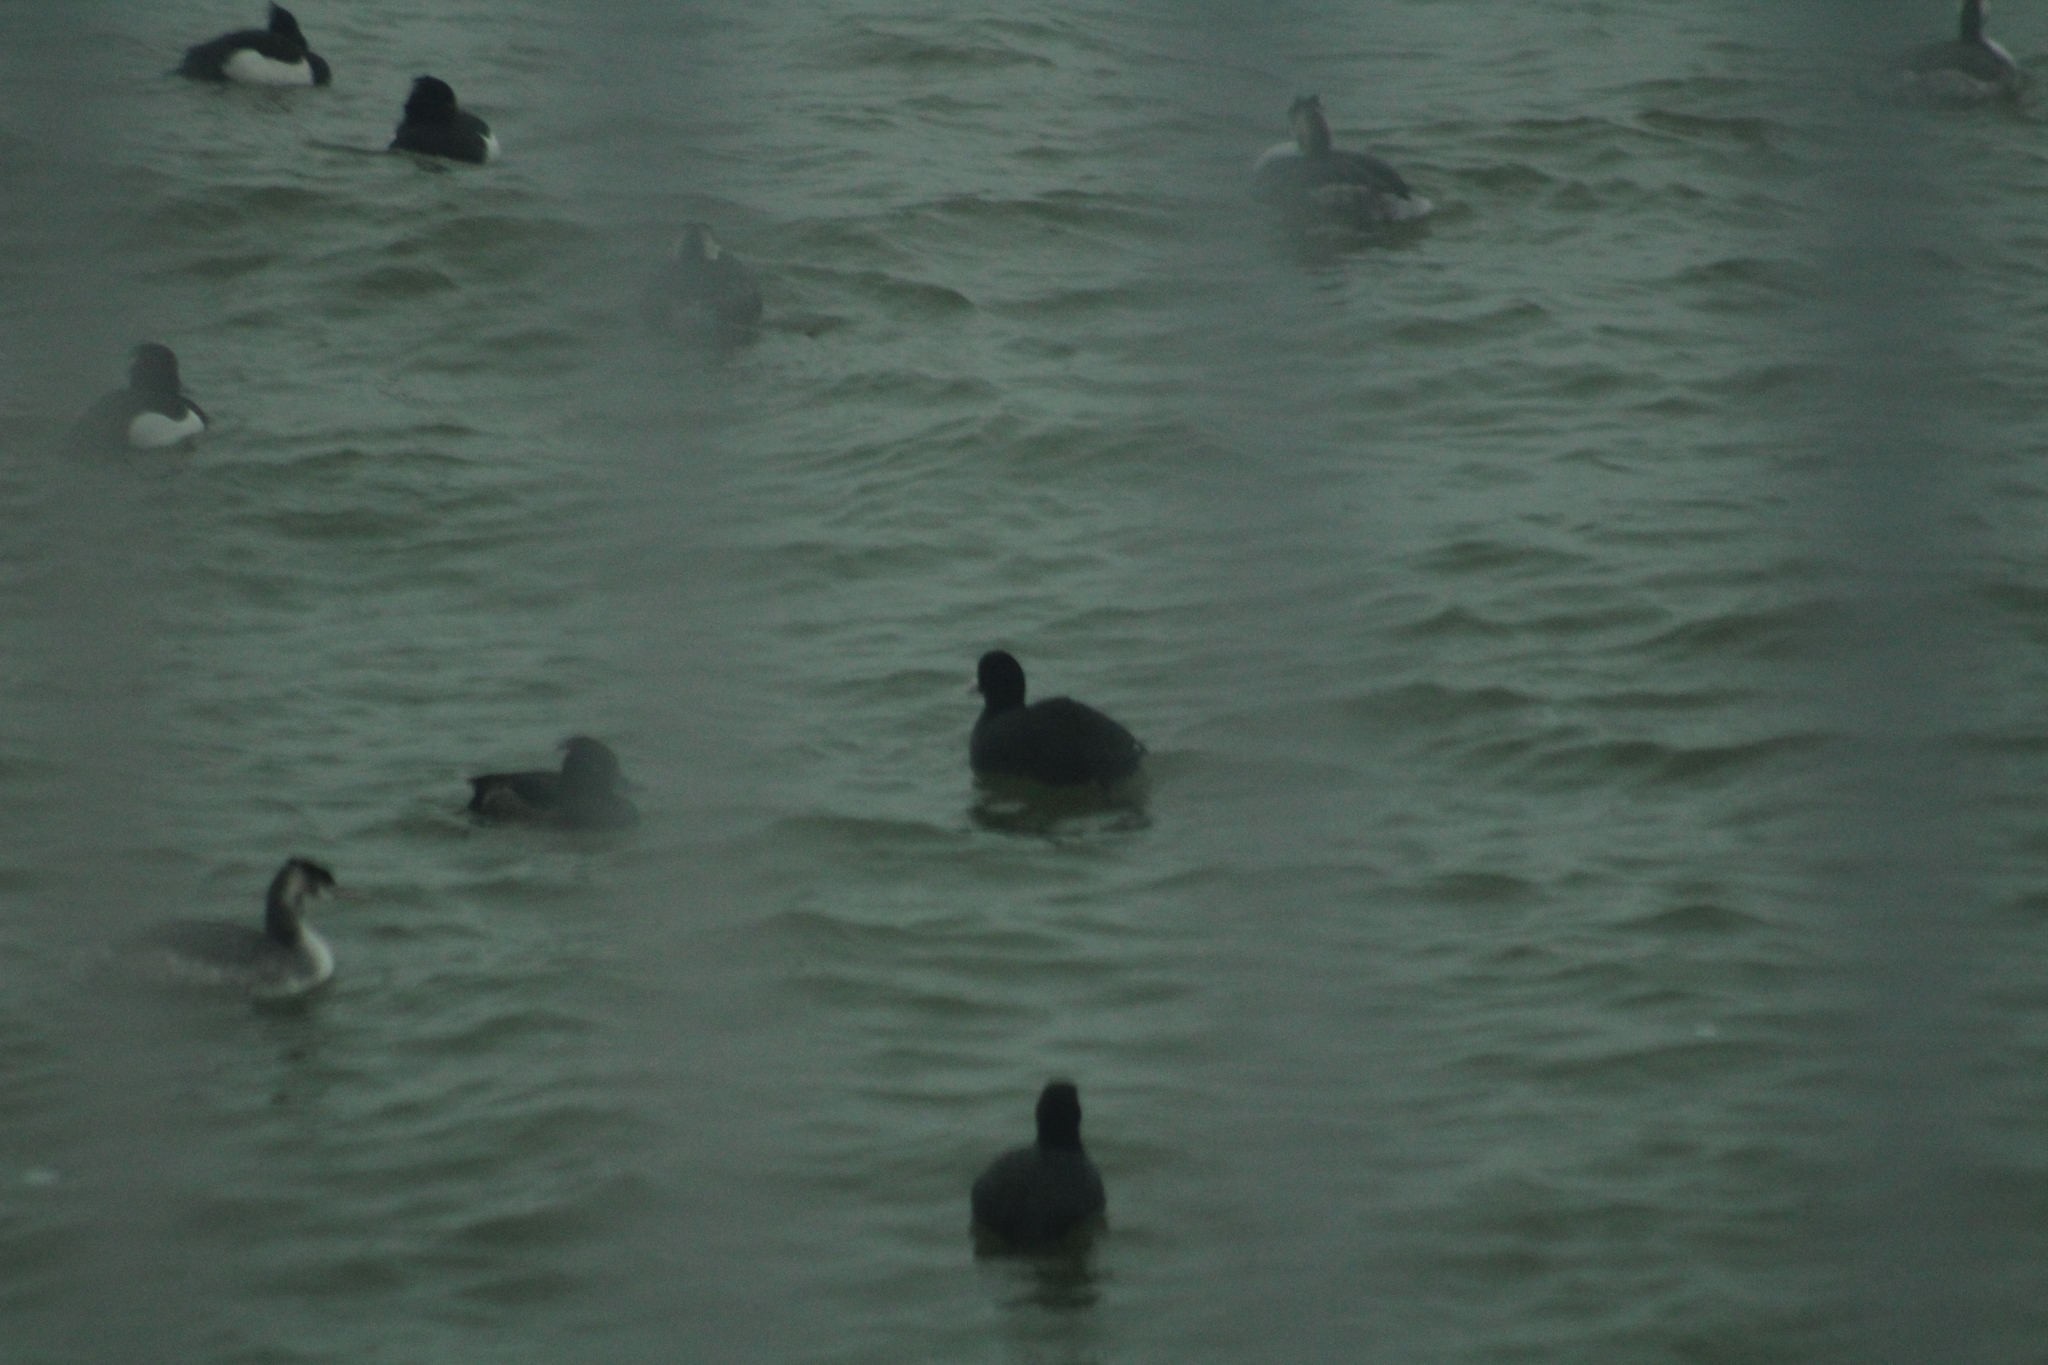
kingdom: Animalia
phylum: Chordata
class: Aves
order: Gruiformes
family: Rallidae
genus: Fulica
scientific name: Fulica atra
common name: Eurasian coot
